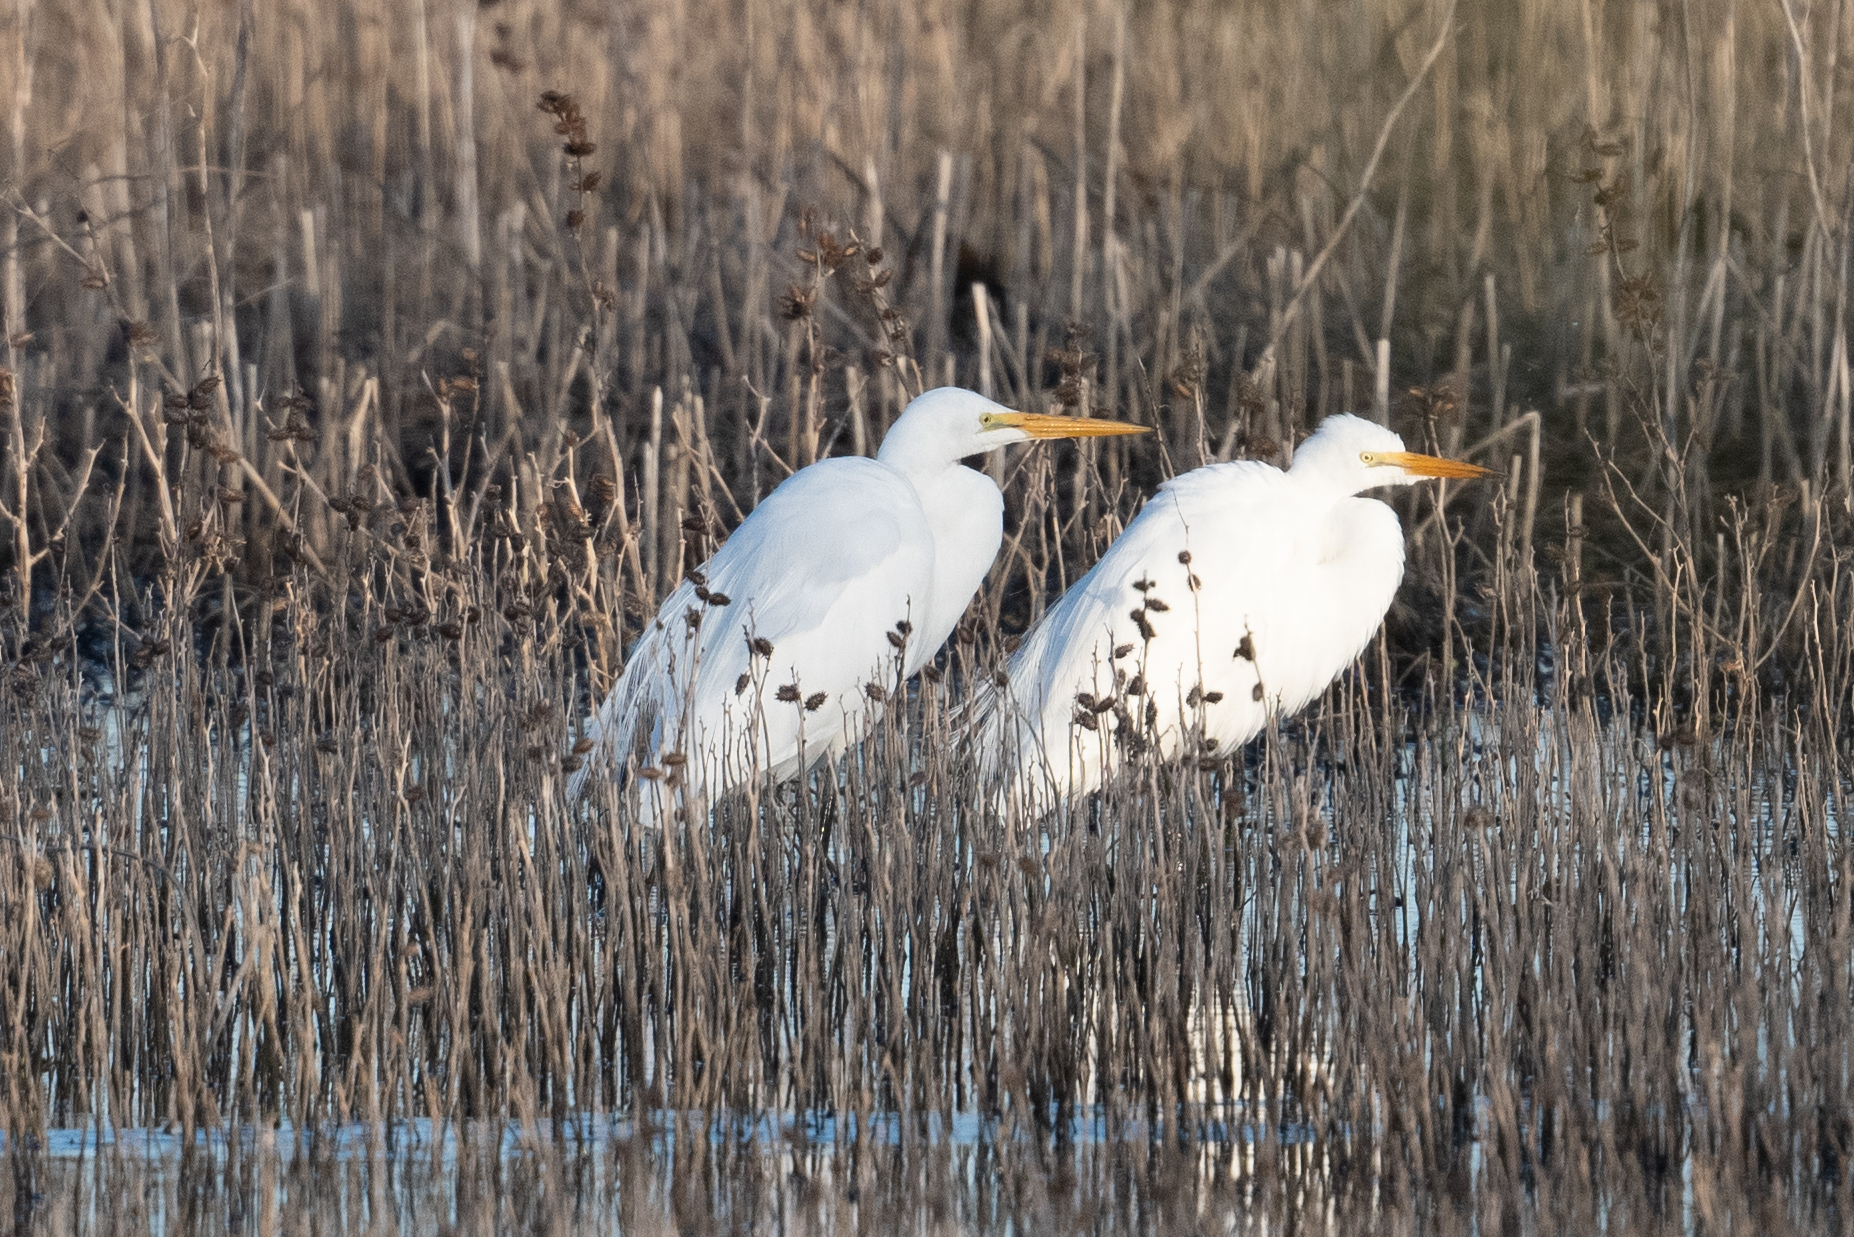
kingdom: Animalia
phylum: Chordata
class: Aves
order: Pelecaniformes
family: Ardeidae
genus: Ardea
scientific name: Ardea alba
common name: Great egret
